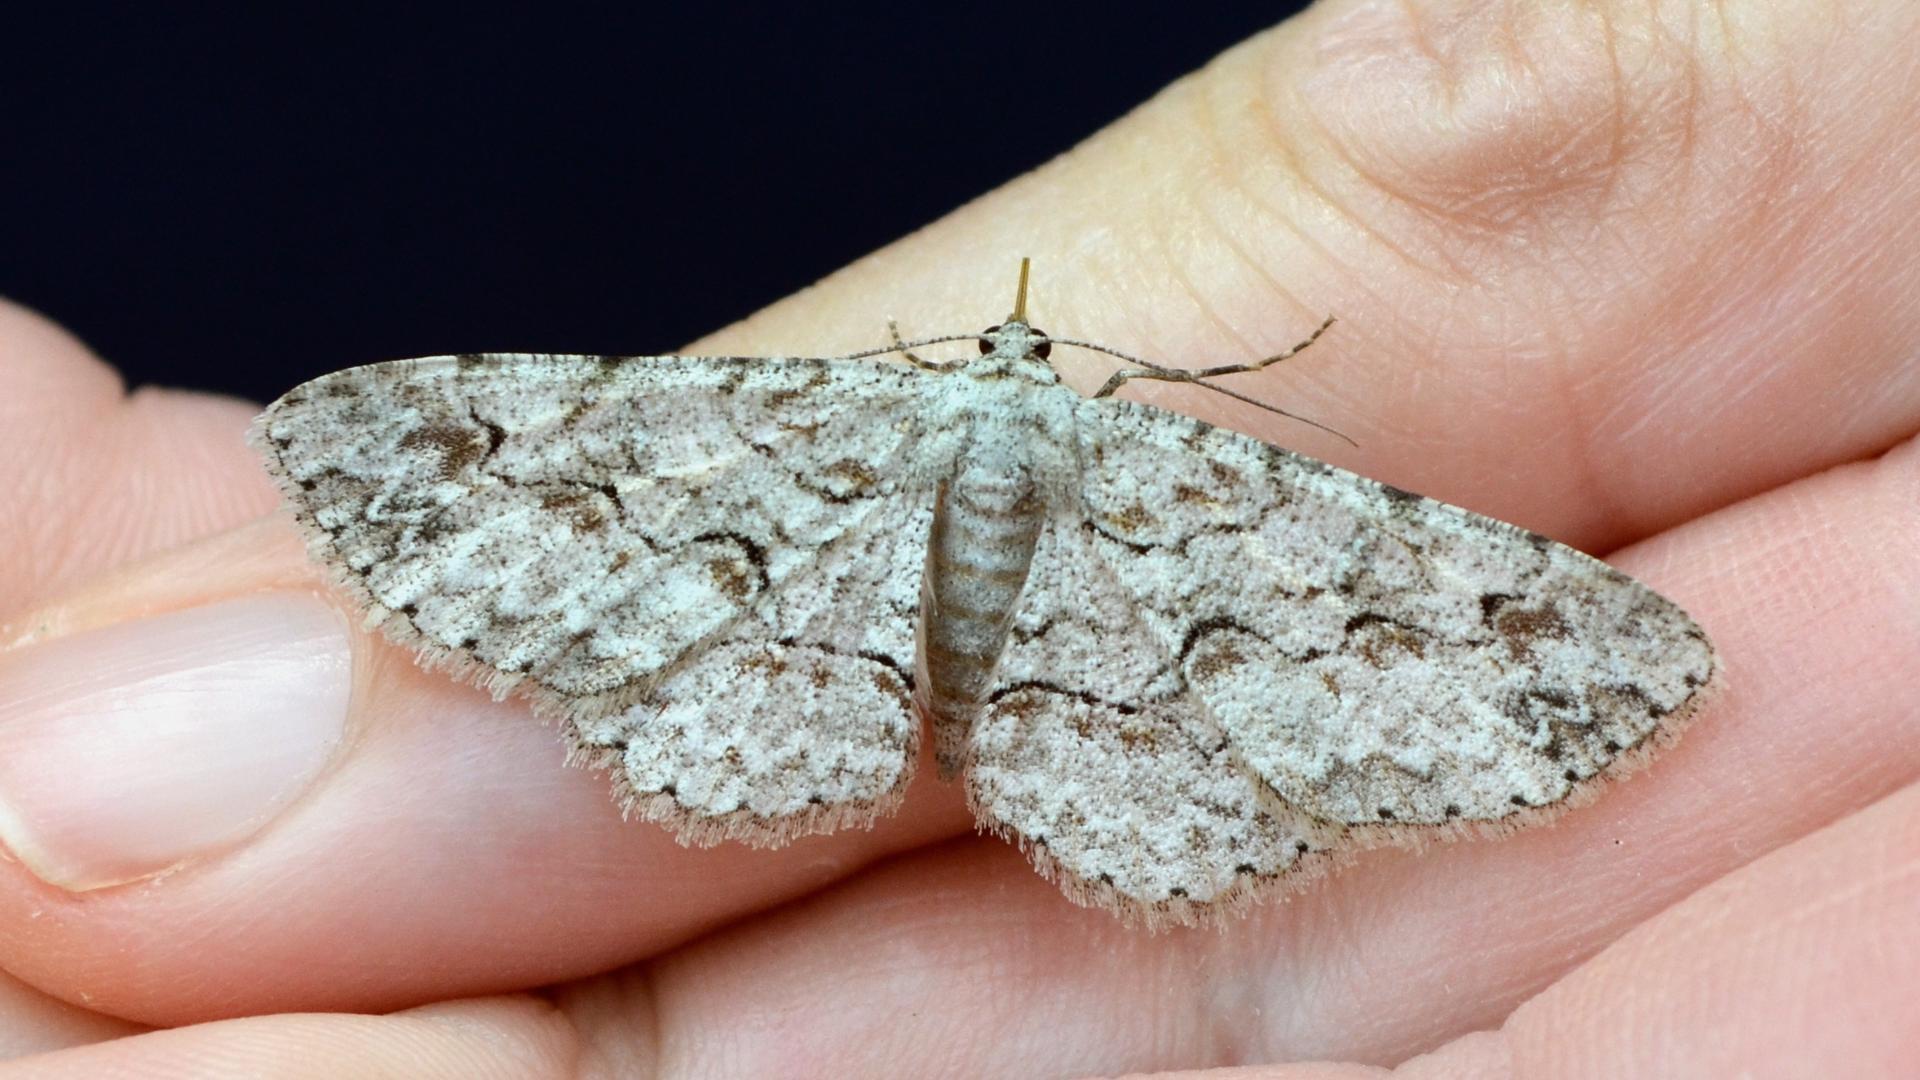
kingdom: Animalia
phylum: Arthropoda
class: Insecta
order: Lepidoptera
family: Geometridae
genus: Iridopsis
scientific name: Iridopsis defectaria
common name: Brown-shaded gray
